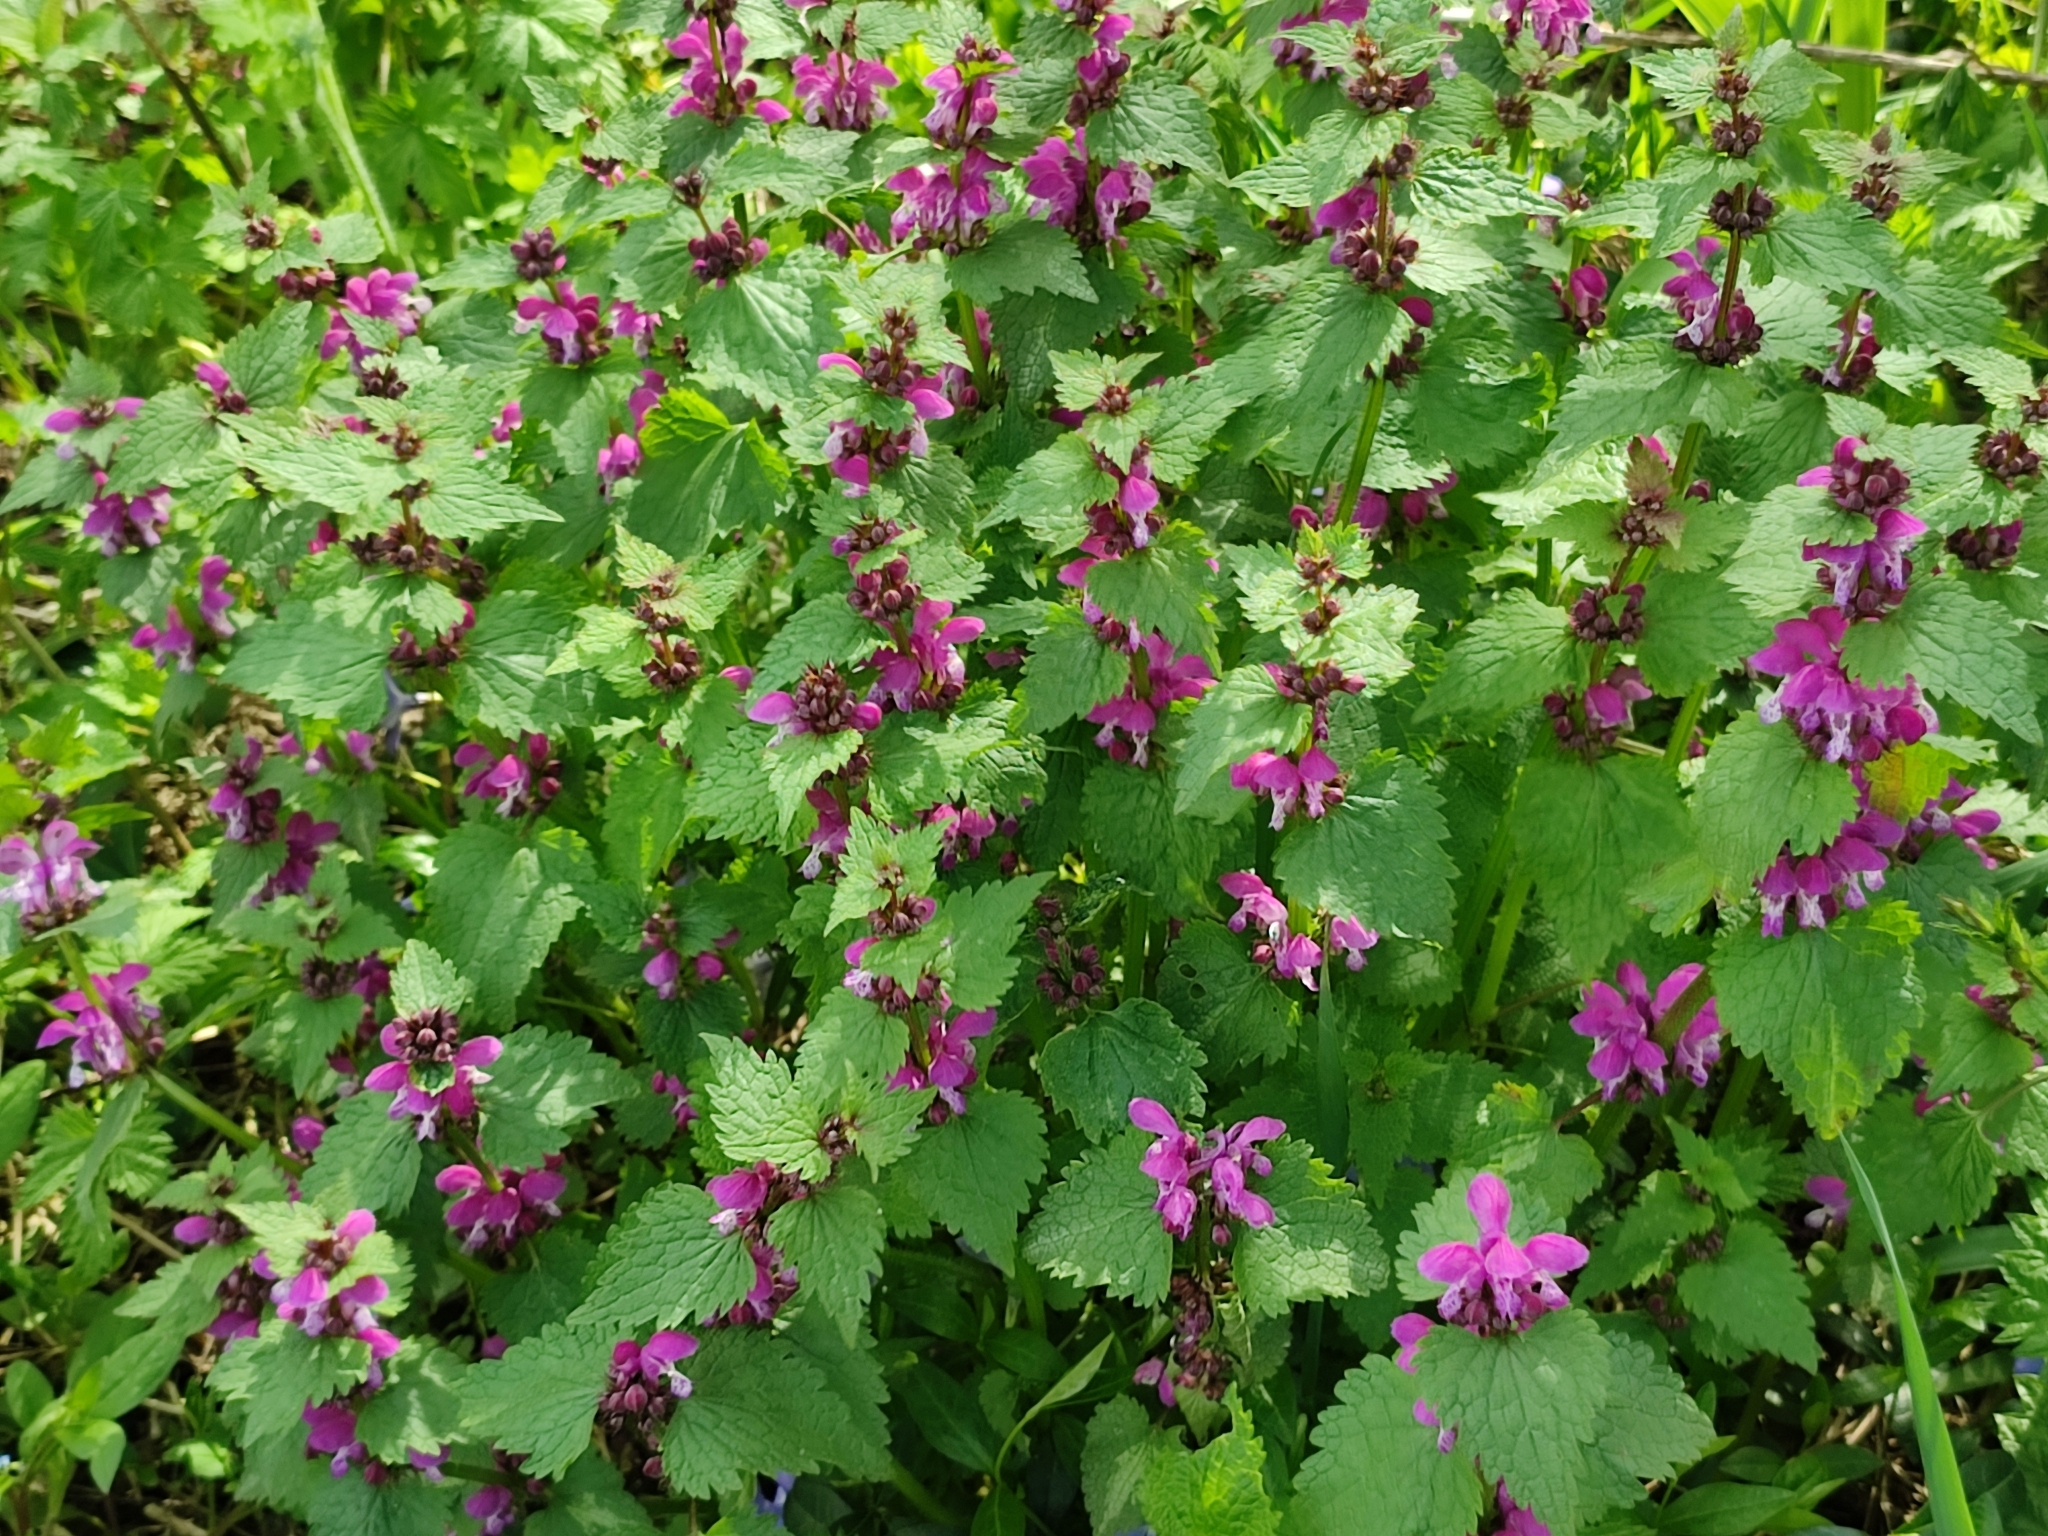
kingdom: Plantae
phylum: Tracheophyta
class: Magnoliopsida
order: Lamiales
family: Lamiaceae
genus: Lamium
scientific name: Lamium maculatum
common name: Spotted dead-nettle
